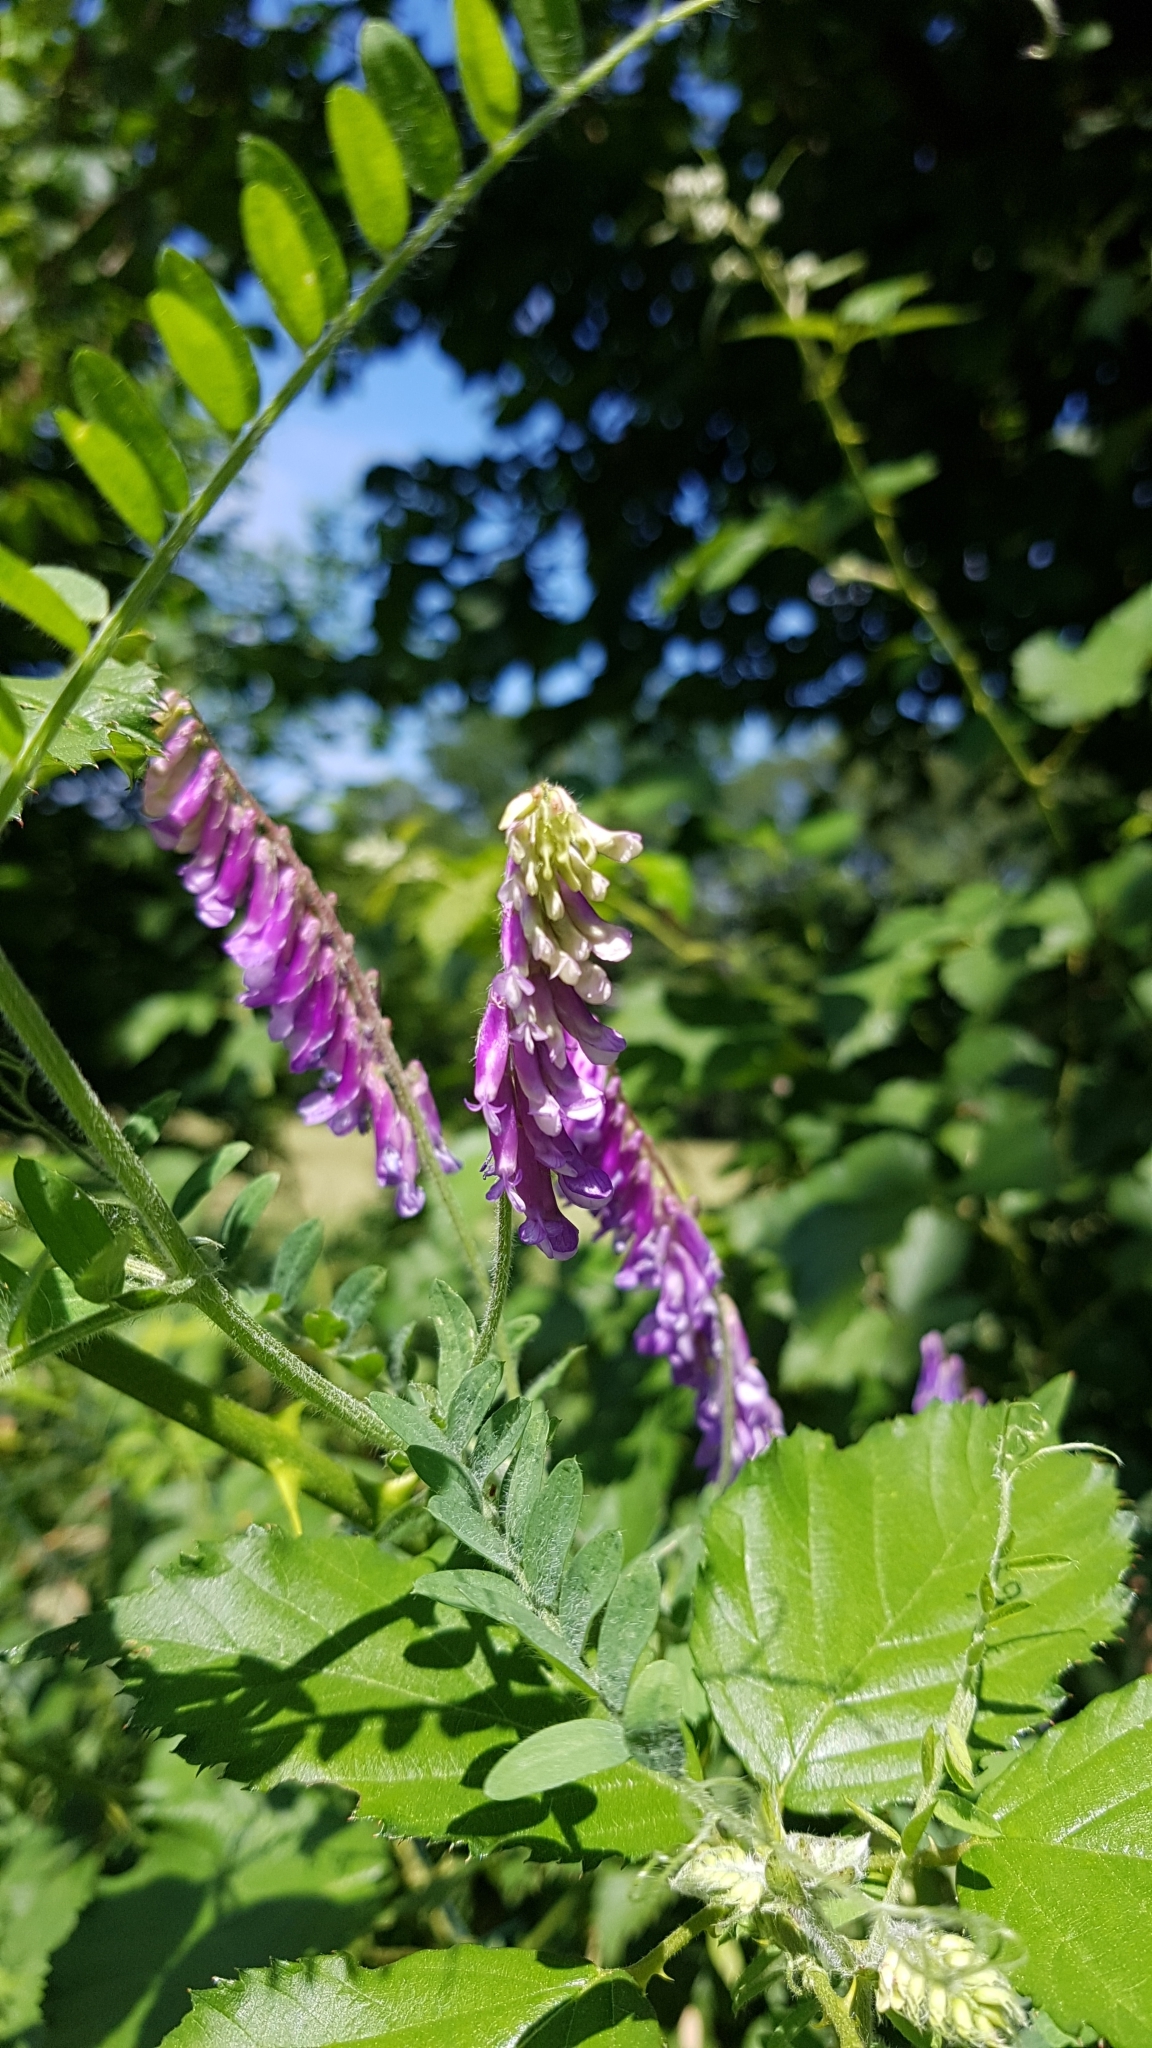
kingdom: Plantae
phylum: Tracheophyta
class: Magnoliopsida
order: Fabales
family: Fabaceae
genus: Vicia
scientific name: Vicia cracca
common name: Bird vetch
